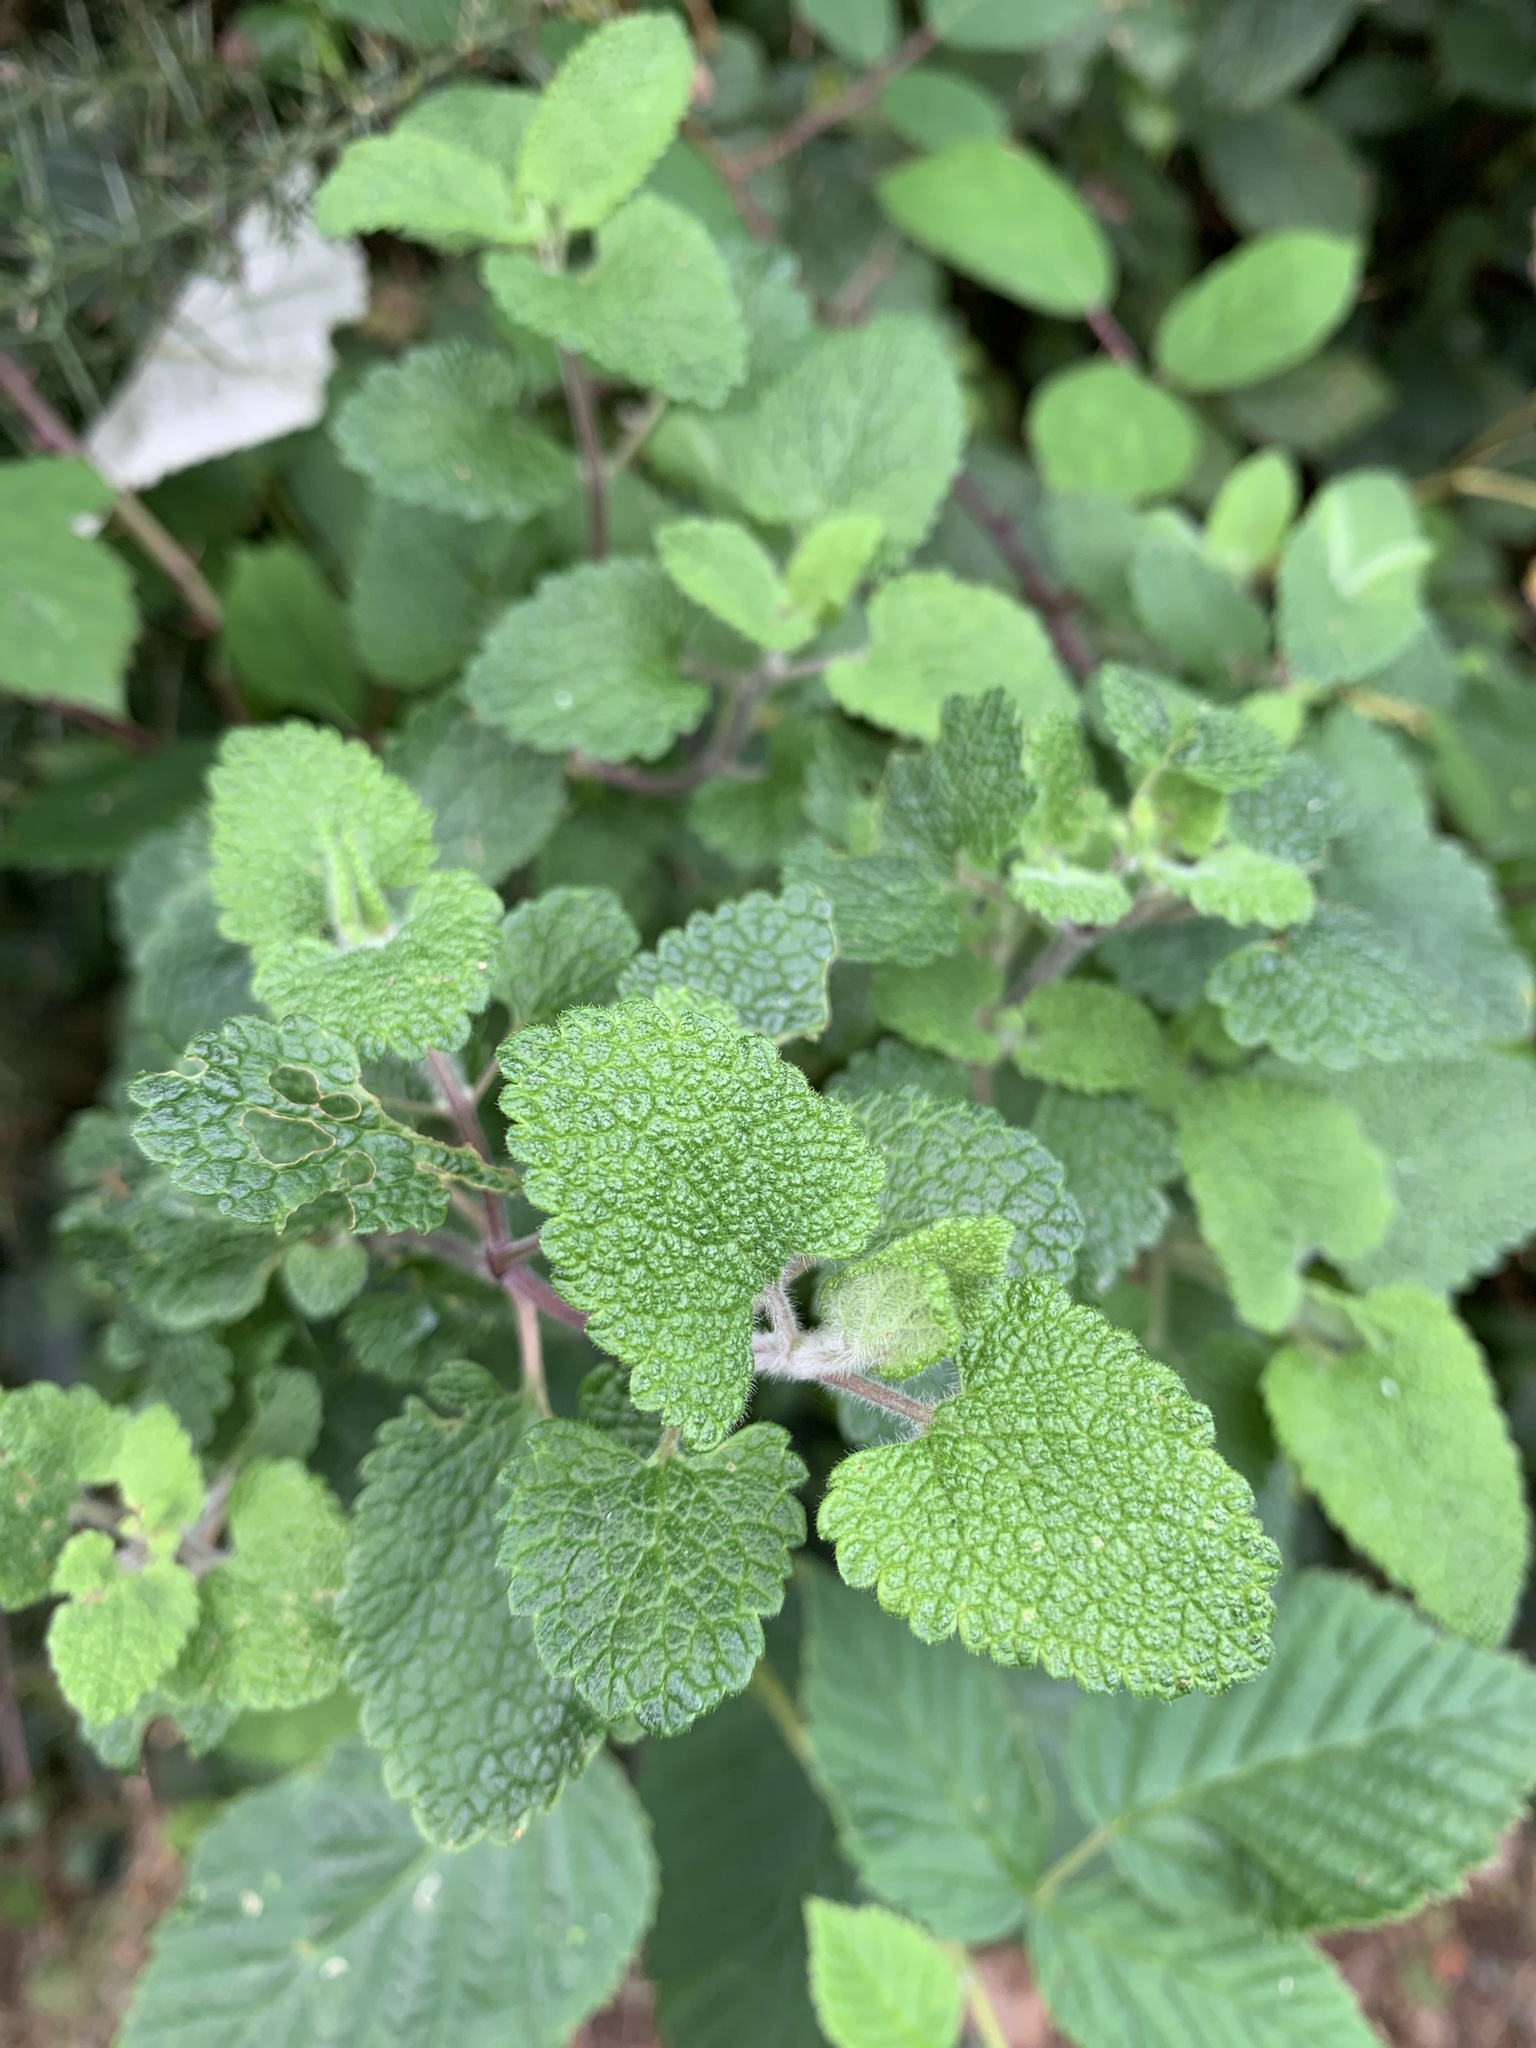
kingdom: Plantae
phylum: Tracheophyta
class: Magnoliopsida
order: Lamiales
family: Lamiaceae
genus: Teucrium
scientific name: Teucrium scorodonia
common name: Woodland germander
